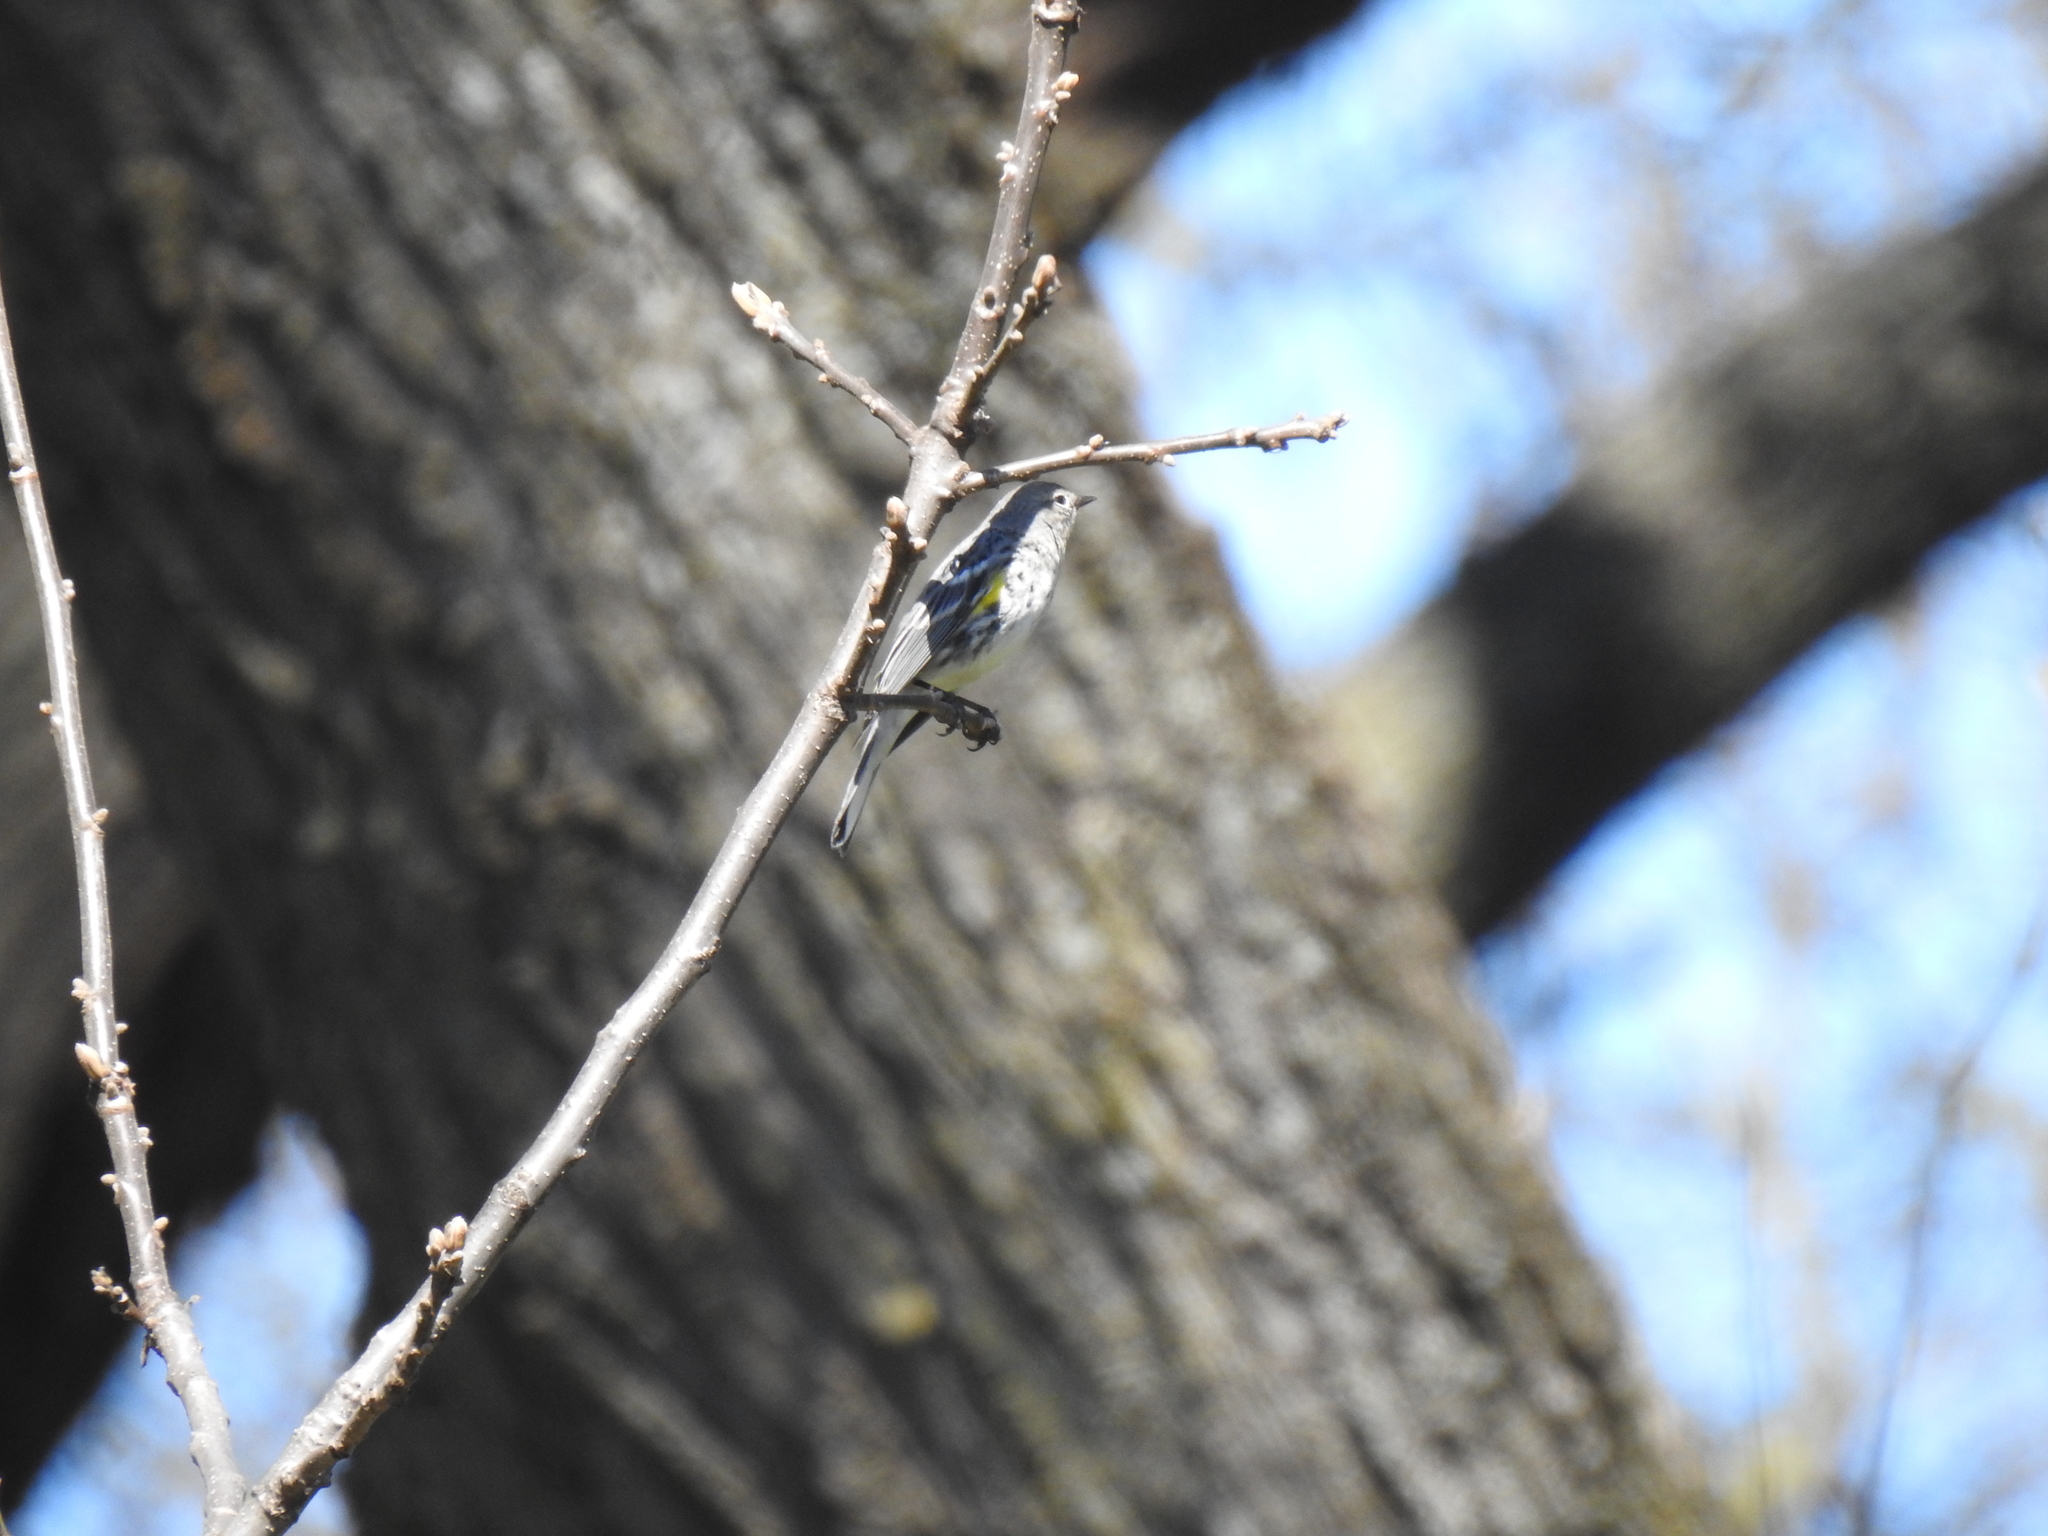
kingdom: Animalia
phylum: Chordata
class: Aves
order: Passeriformes
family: Parulidae
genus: Setophaga
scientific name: Setophaga coronata
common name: Myrtle warbler
